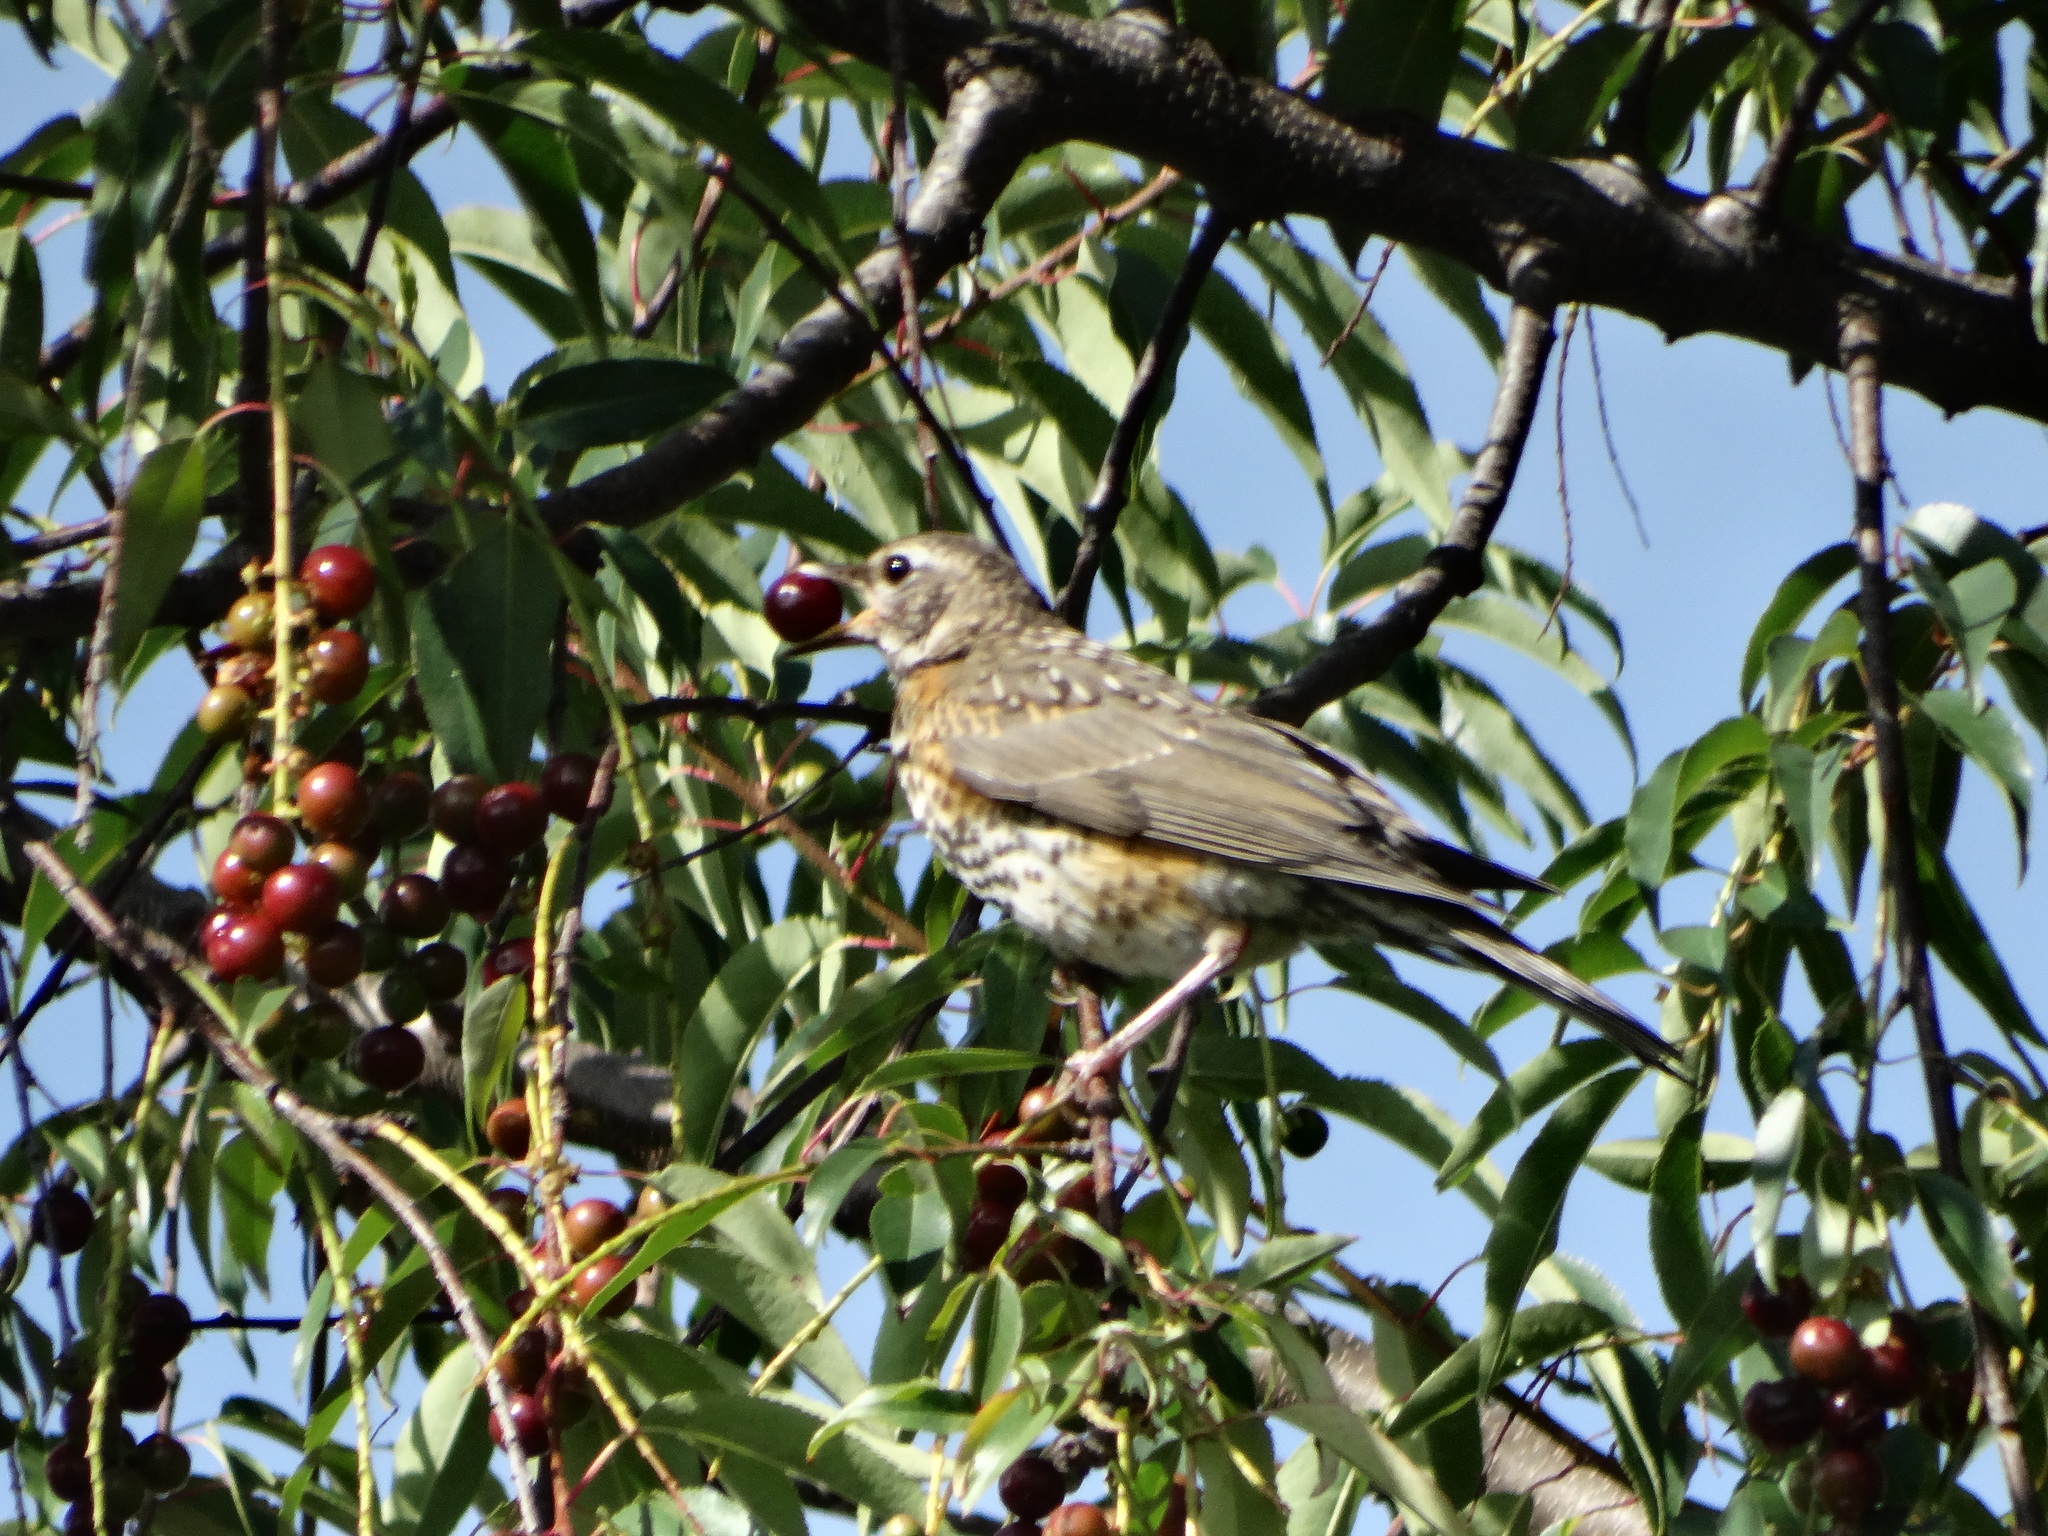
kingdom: Animalia
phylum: Chordata
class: Aves
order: Passeriformes
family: Turdidae
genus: Turdus
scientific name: Turdus migratorius
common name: American robin
